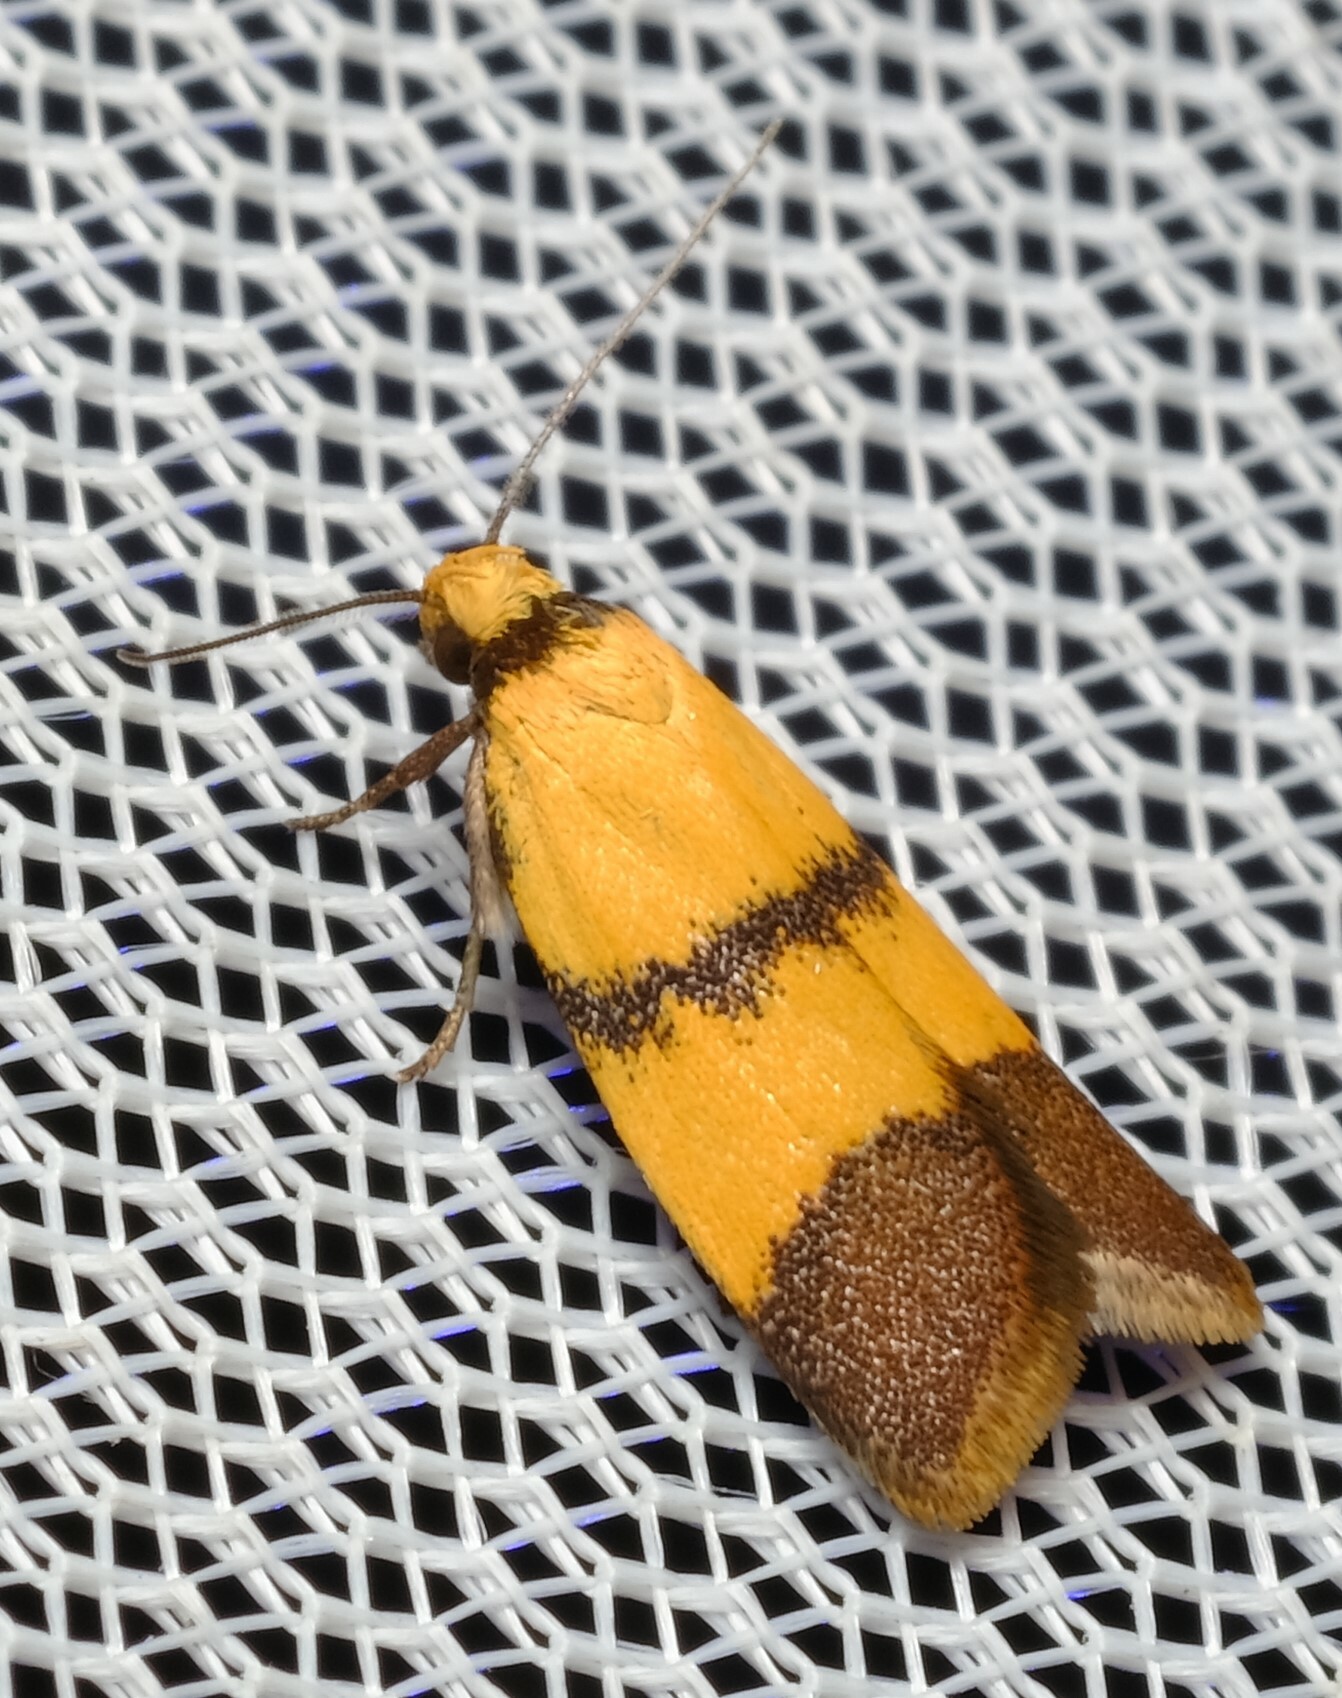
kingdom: Animalia
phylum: Arthropoda
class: Insecta
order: Lepidoptera
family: Oecophoridae
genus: Heteroteucha
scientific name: Heteroteucha translatella
